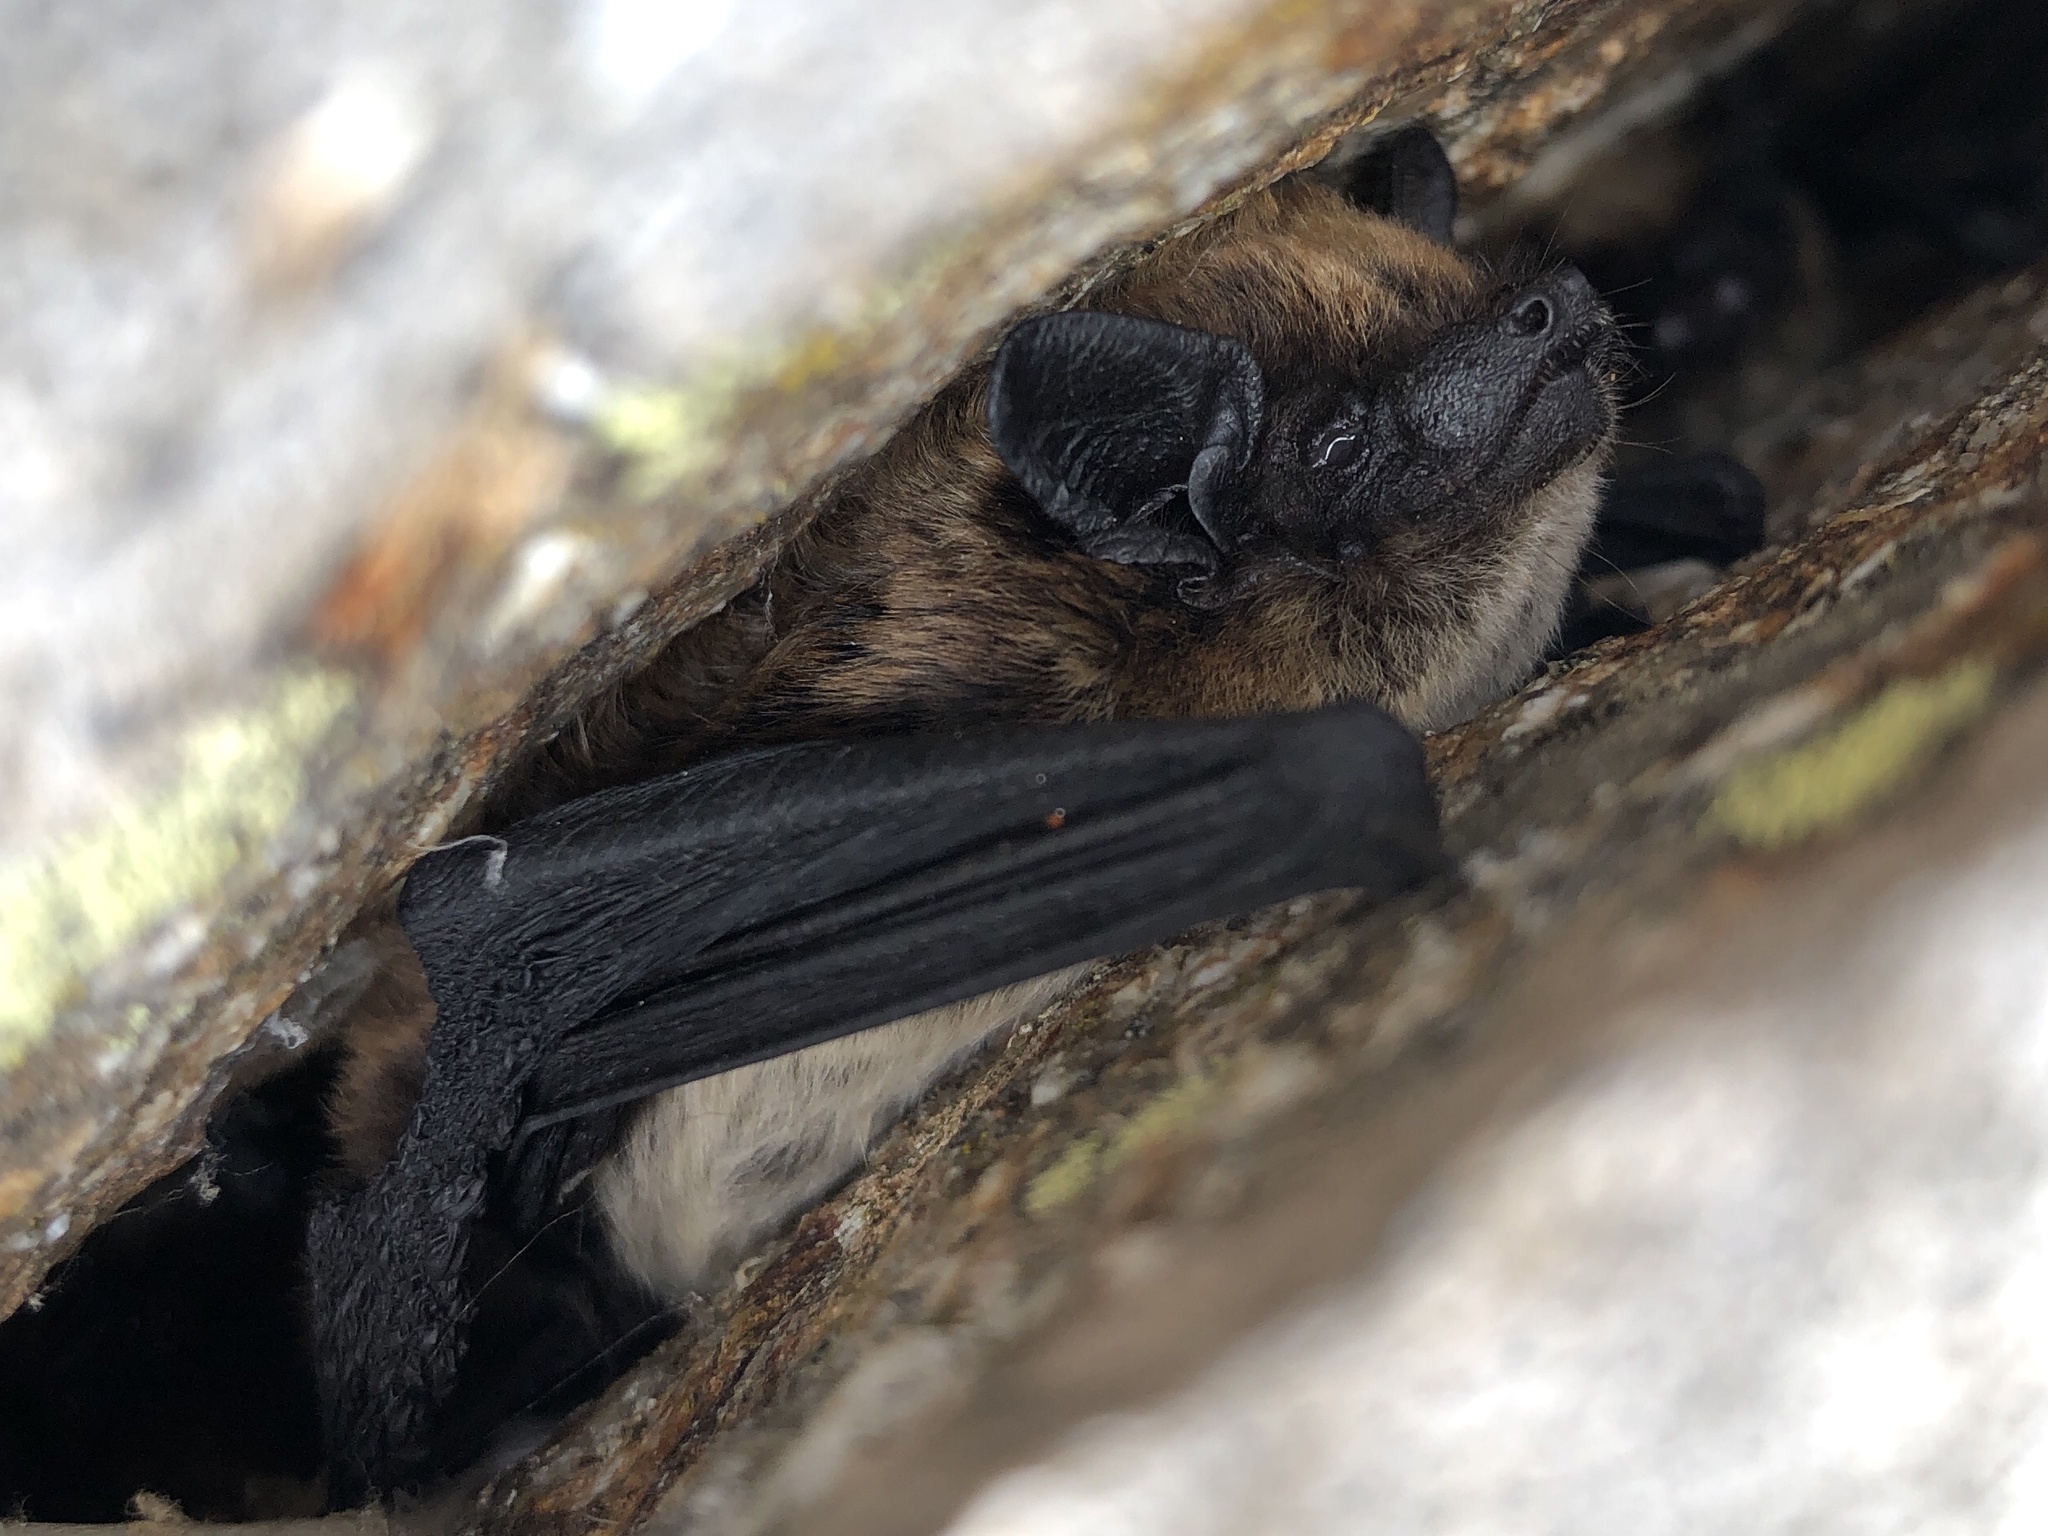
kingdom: Animalia
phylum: Chordata
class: Mammalia
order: Chiroptera
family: Vespertilionidae
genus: Hypsugo
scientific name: Hypsugo savii
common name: Savi's pipistrelle
